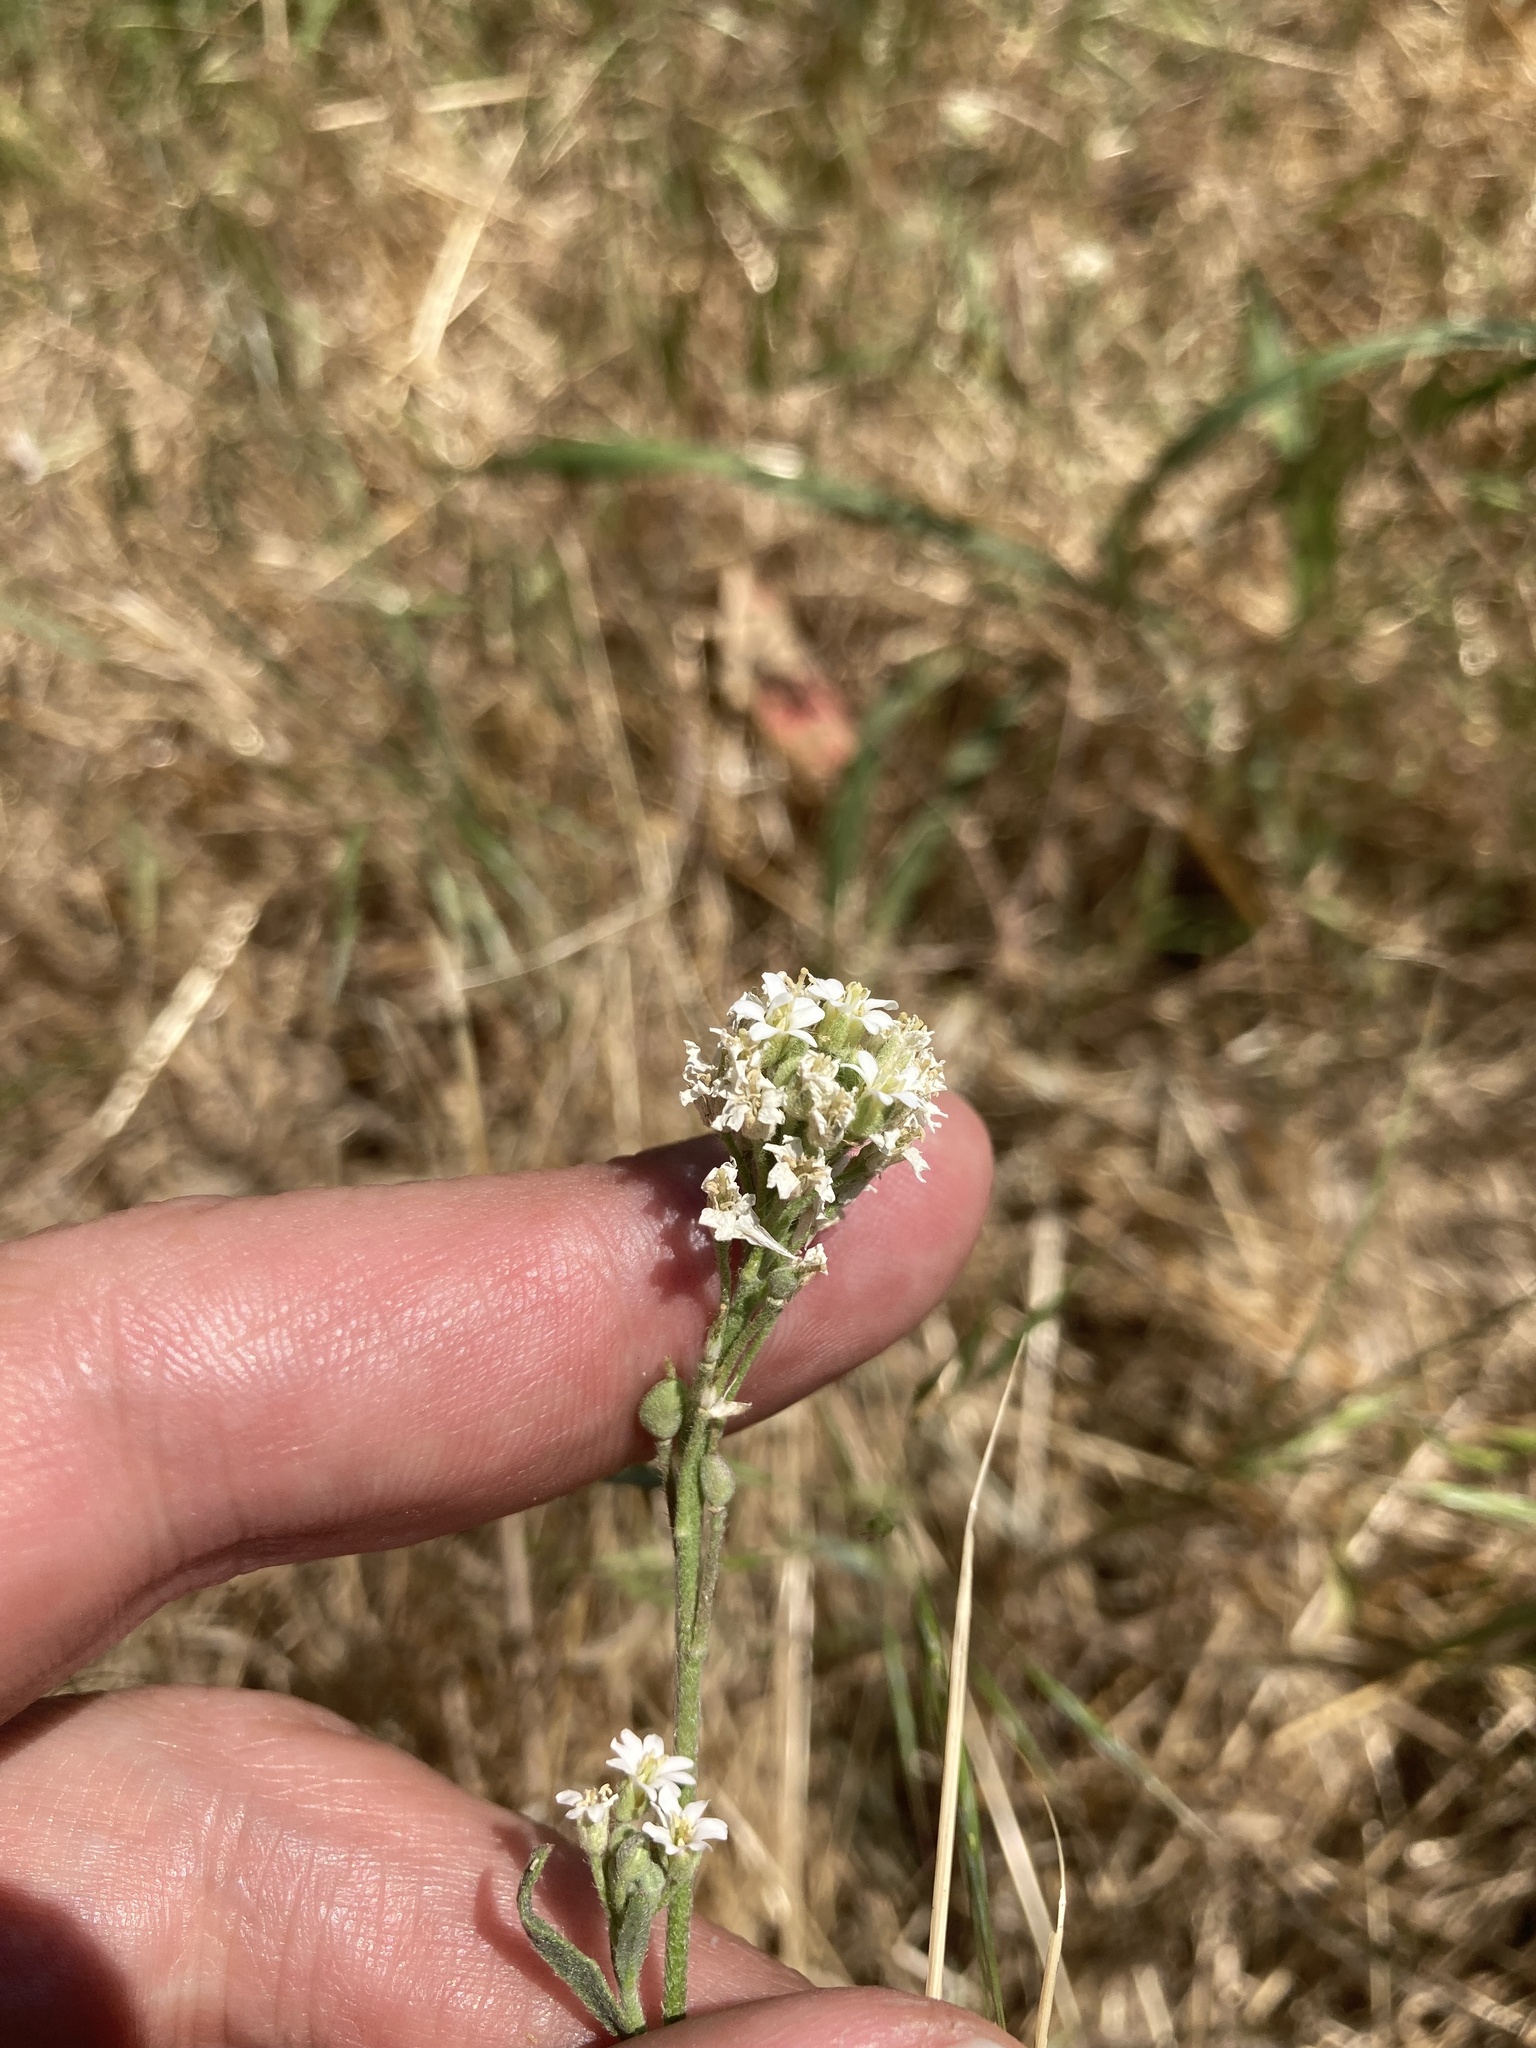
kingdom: Plantae
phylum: Tracheophyta
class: Magnoliopsida
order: Brassicales
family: Brassicaceae
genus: Berteroa
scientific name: Berteroa incana
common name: Hoary alison
